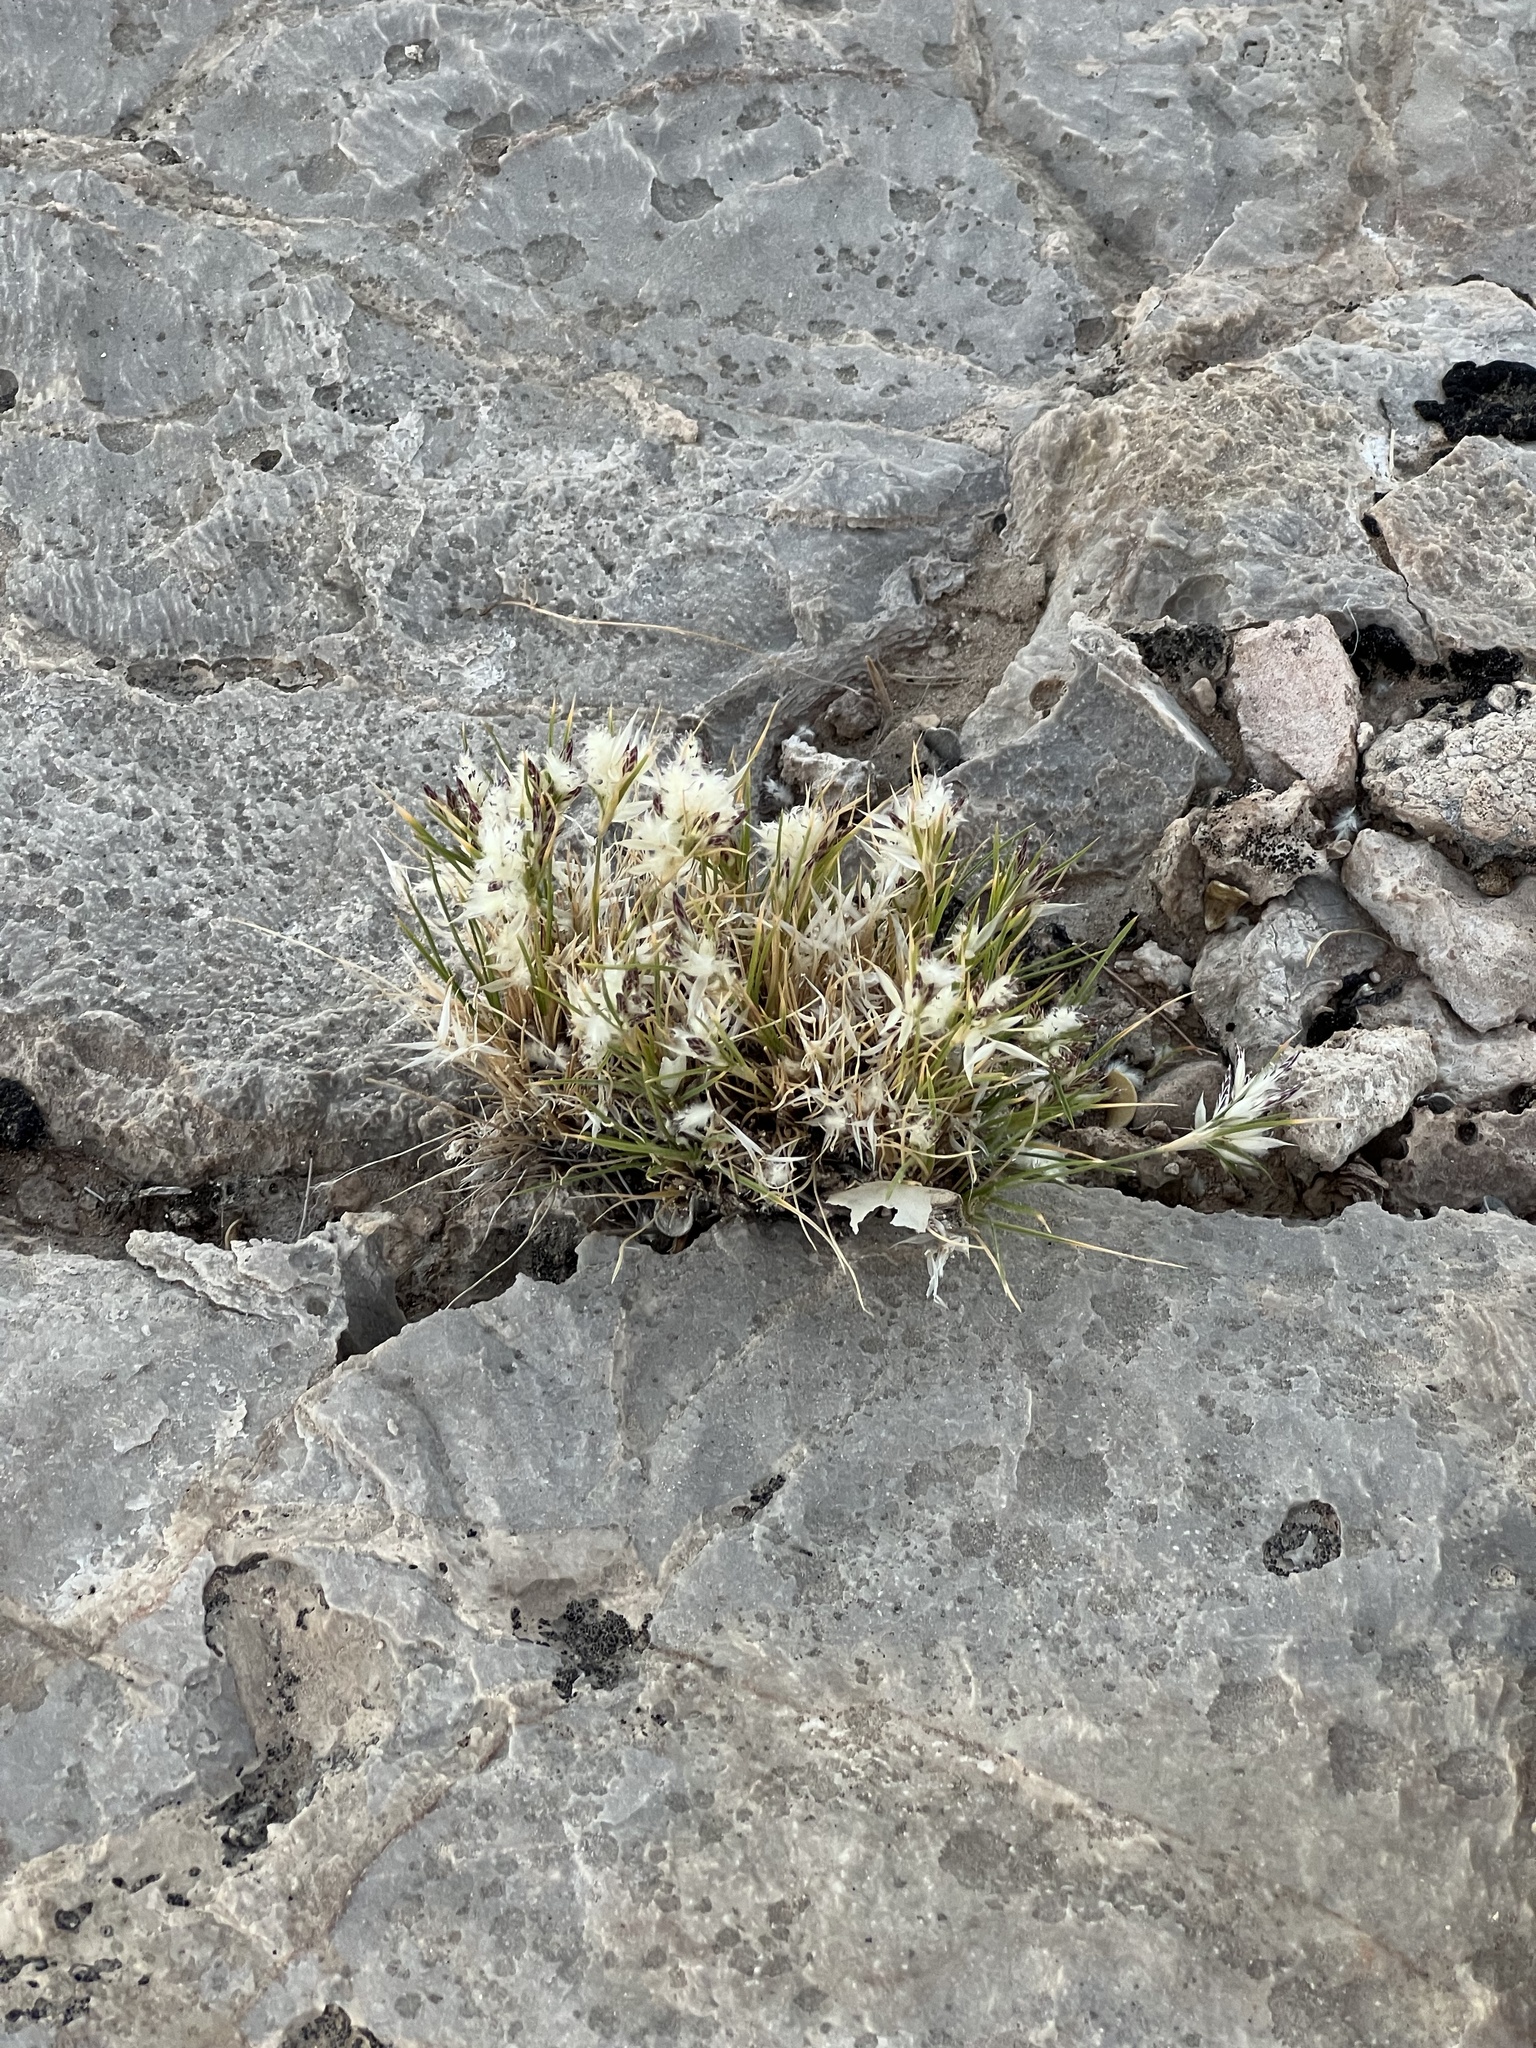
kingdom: Plantae
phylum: Tracheophyta
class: Liliopsida
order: Poales
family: Poaceae
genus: Dasyochloa
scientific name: Dasyochloa pulchella
